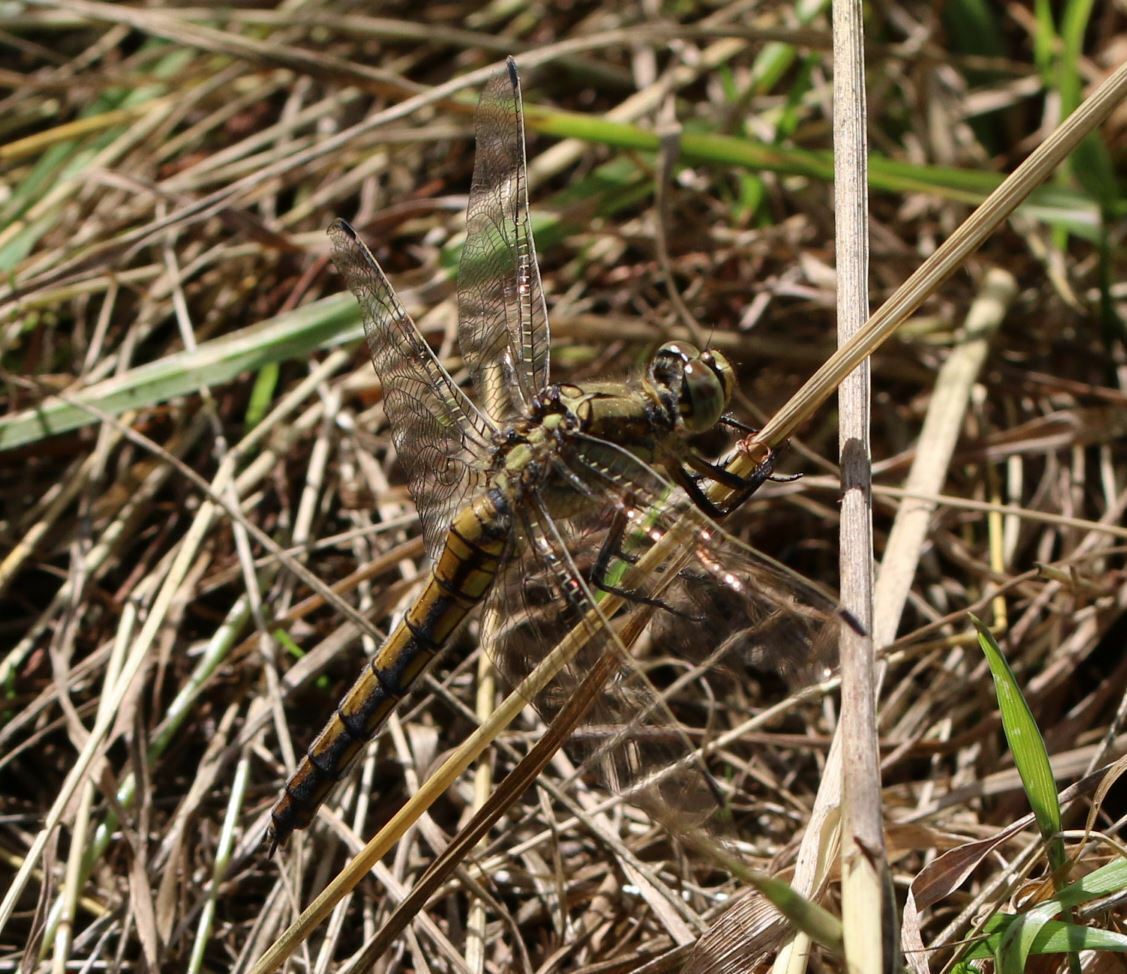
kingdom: Animalia
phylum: Arthropoda
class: Insecta
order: Odonata
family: Libellulidae
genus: Orthetrum
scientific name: Orthetrum cancellatum
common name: Black-tailed skimmer
